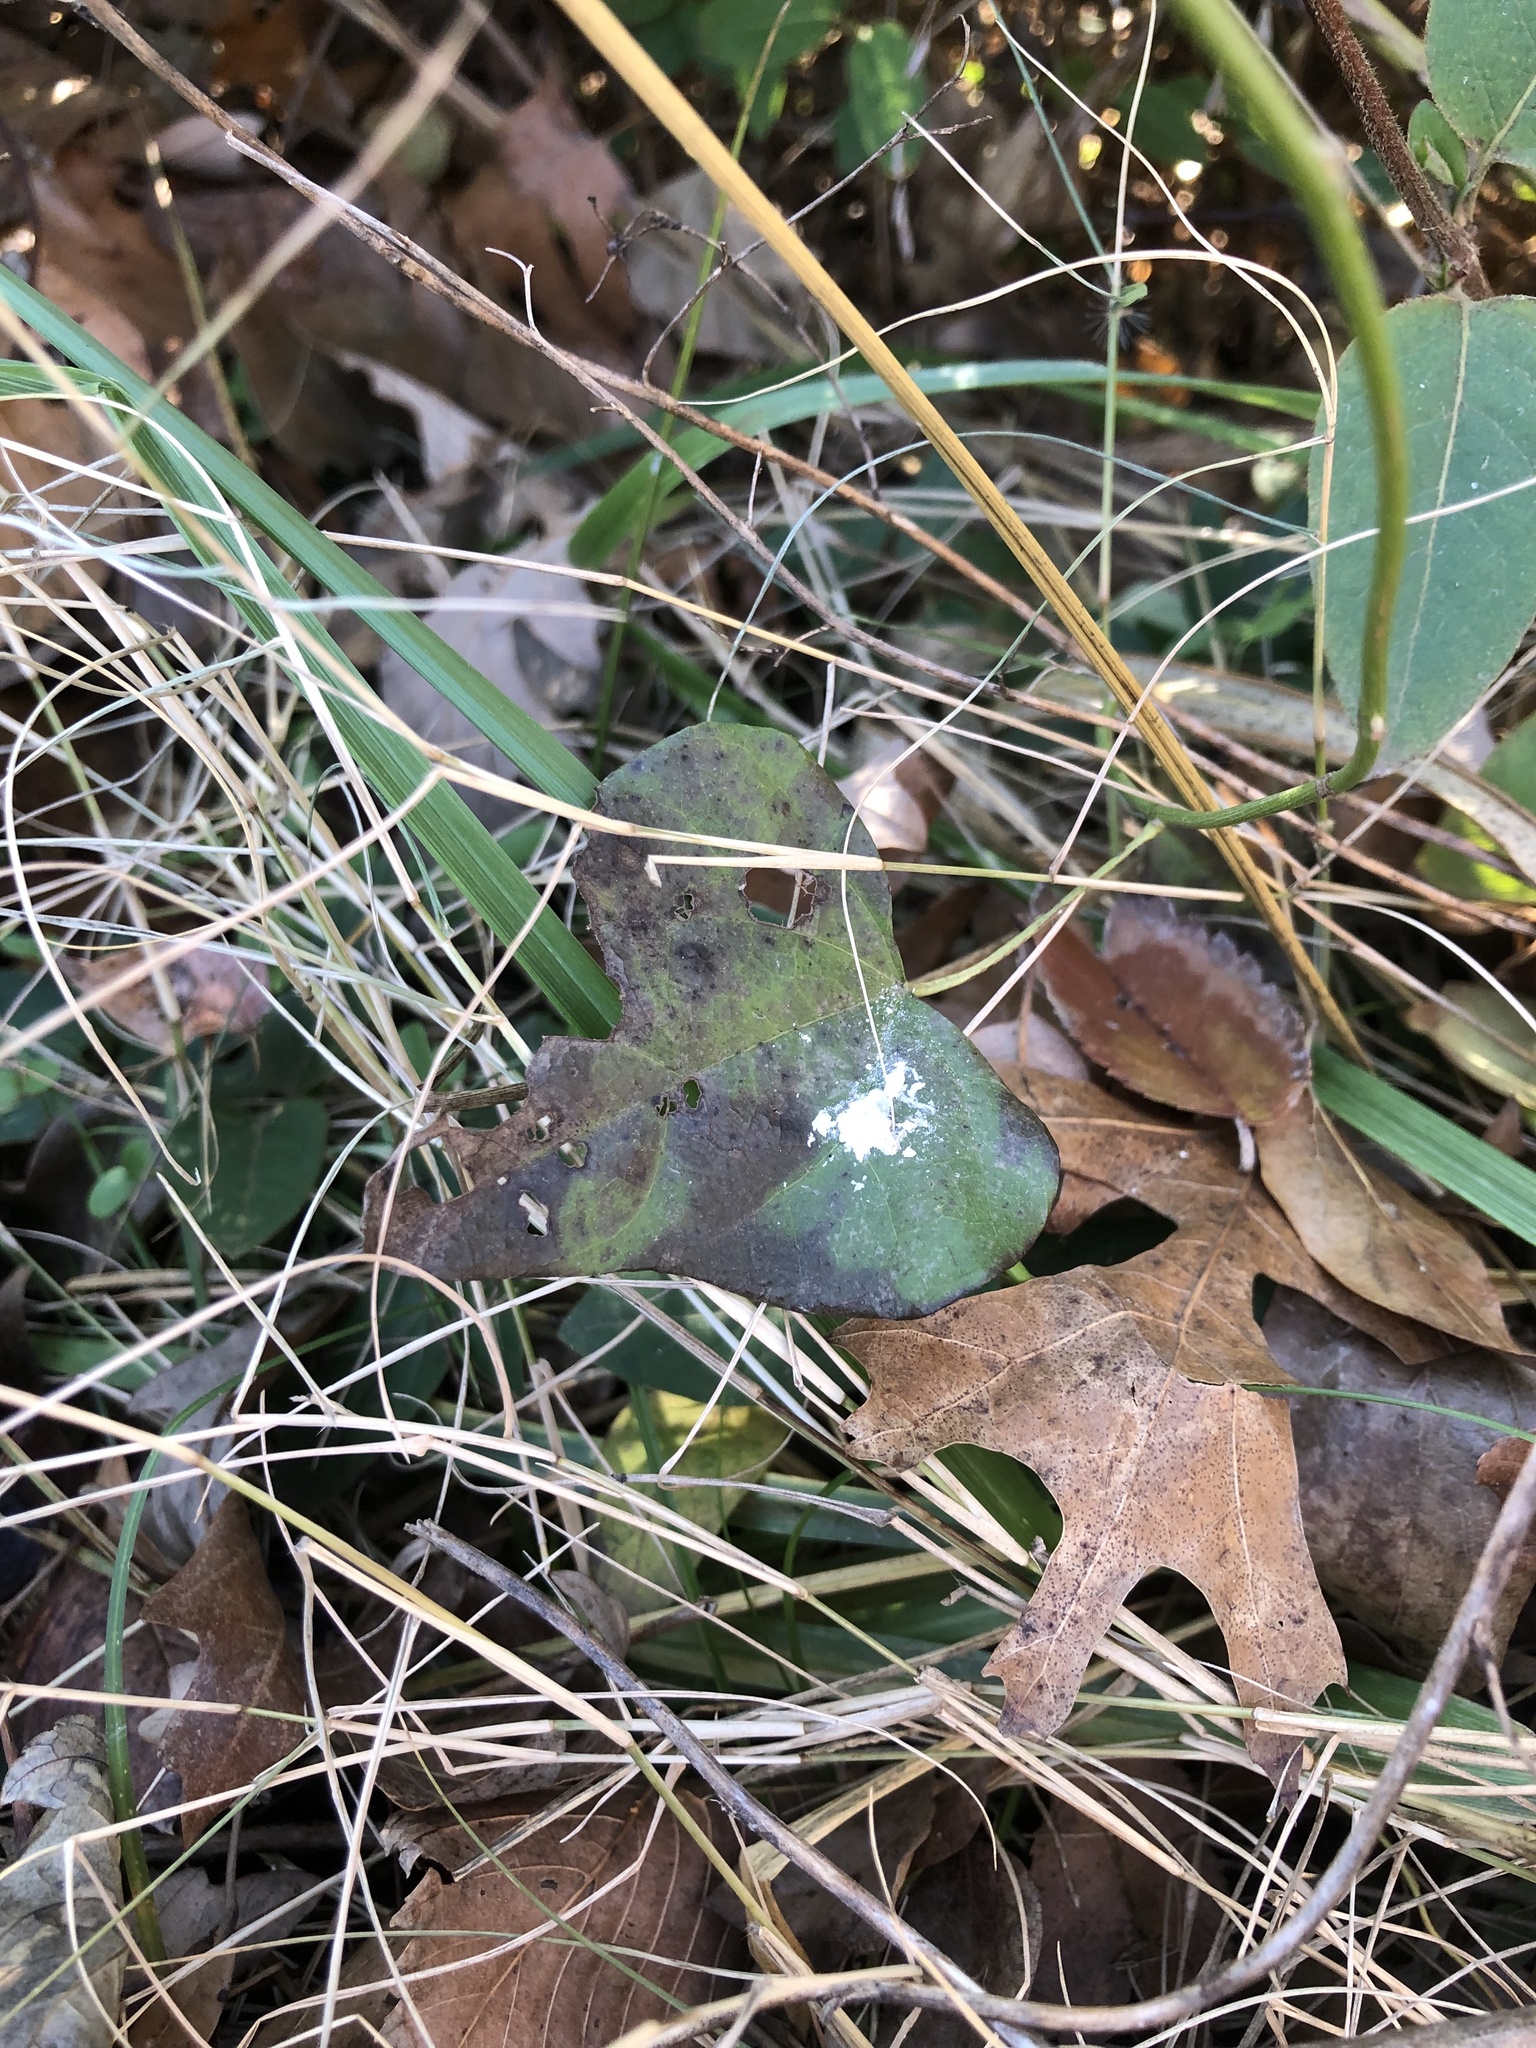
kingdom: Plantae
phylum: Tracheophyta
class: Magnoliopsida
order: Ranunculales
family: Menispermaceae
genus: Cocculus
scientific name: Cocculus carolinus
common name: Carolina moonseed
